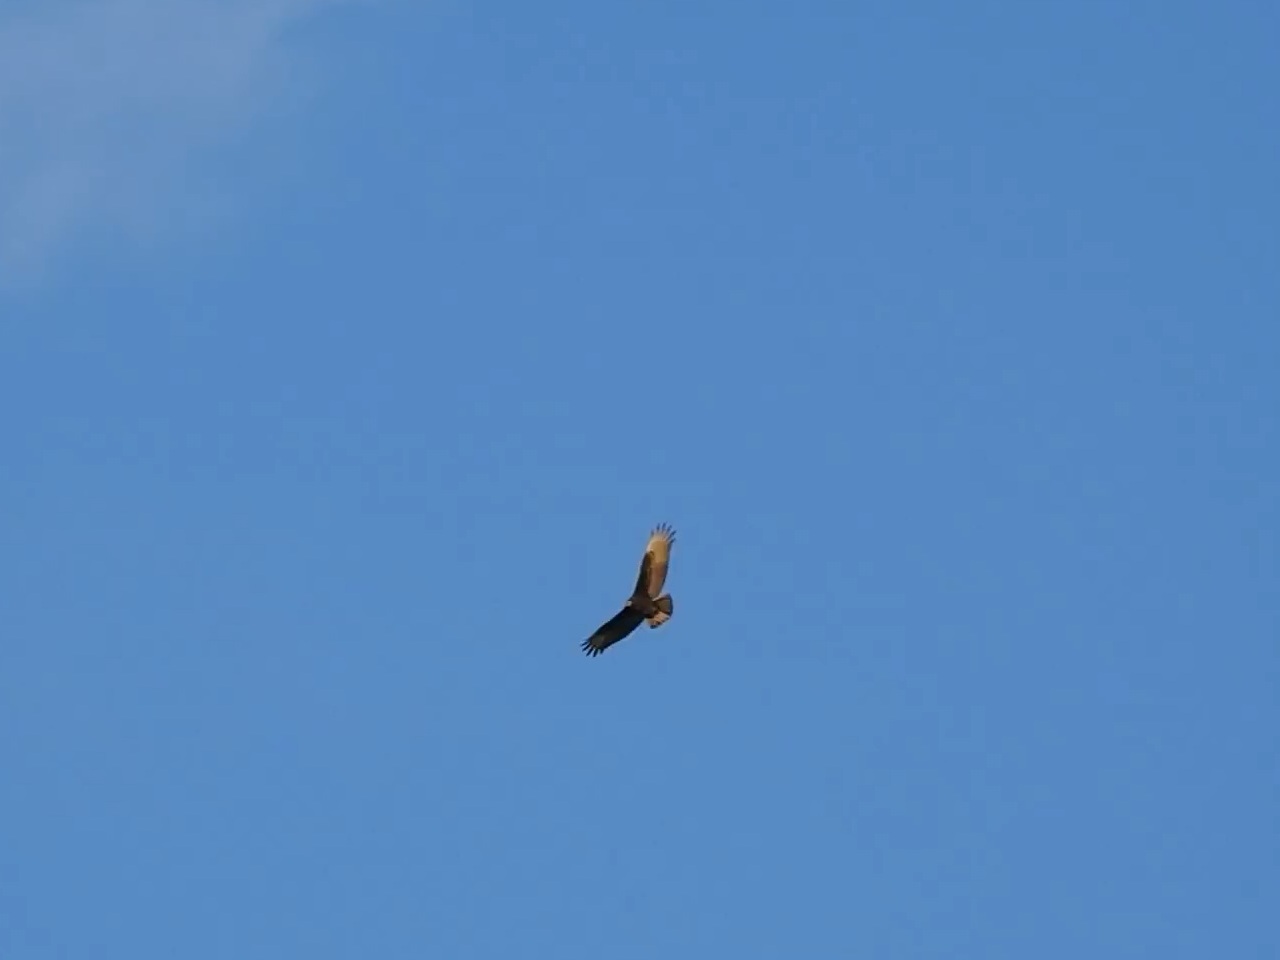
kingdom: Animalia
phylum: Chordata
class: Aves
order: Accipitriformes
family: Cathartidae
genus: Cathartes
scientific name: Cathartes aura
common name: Turkey vulture
